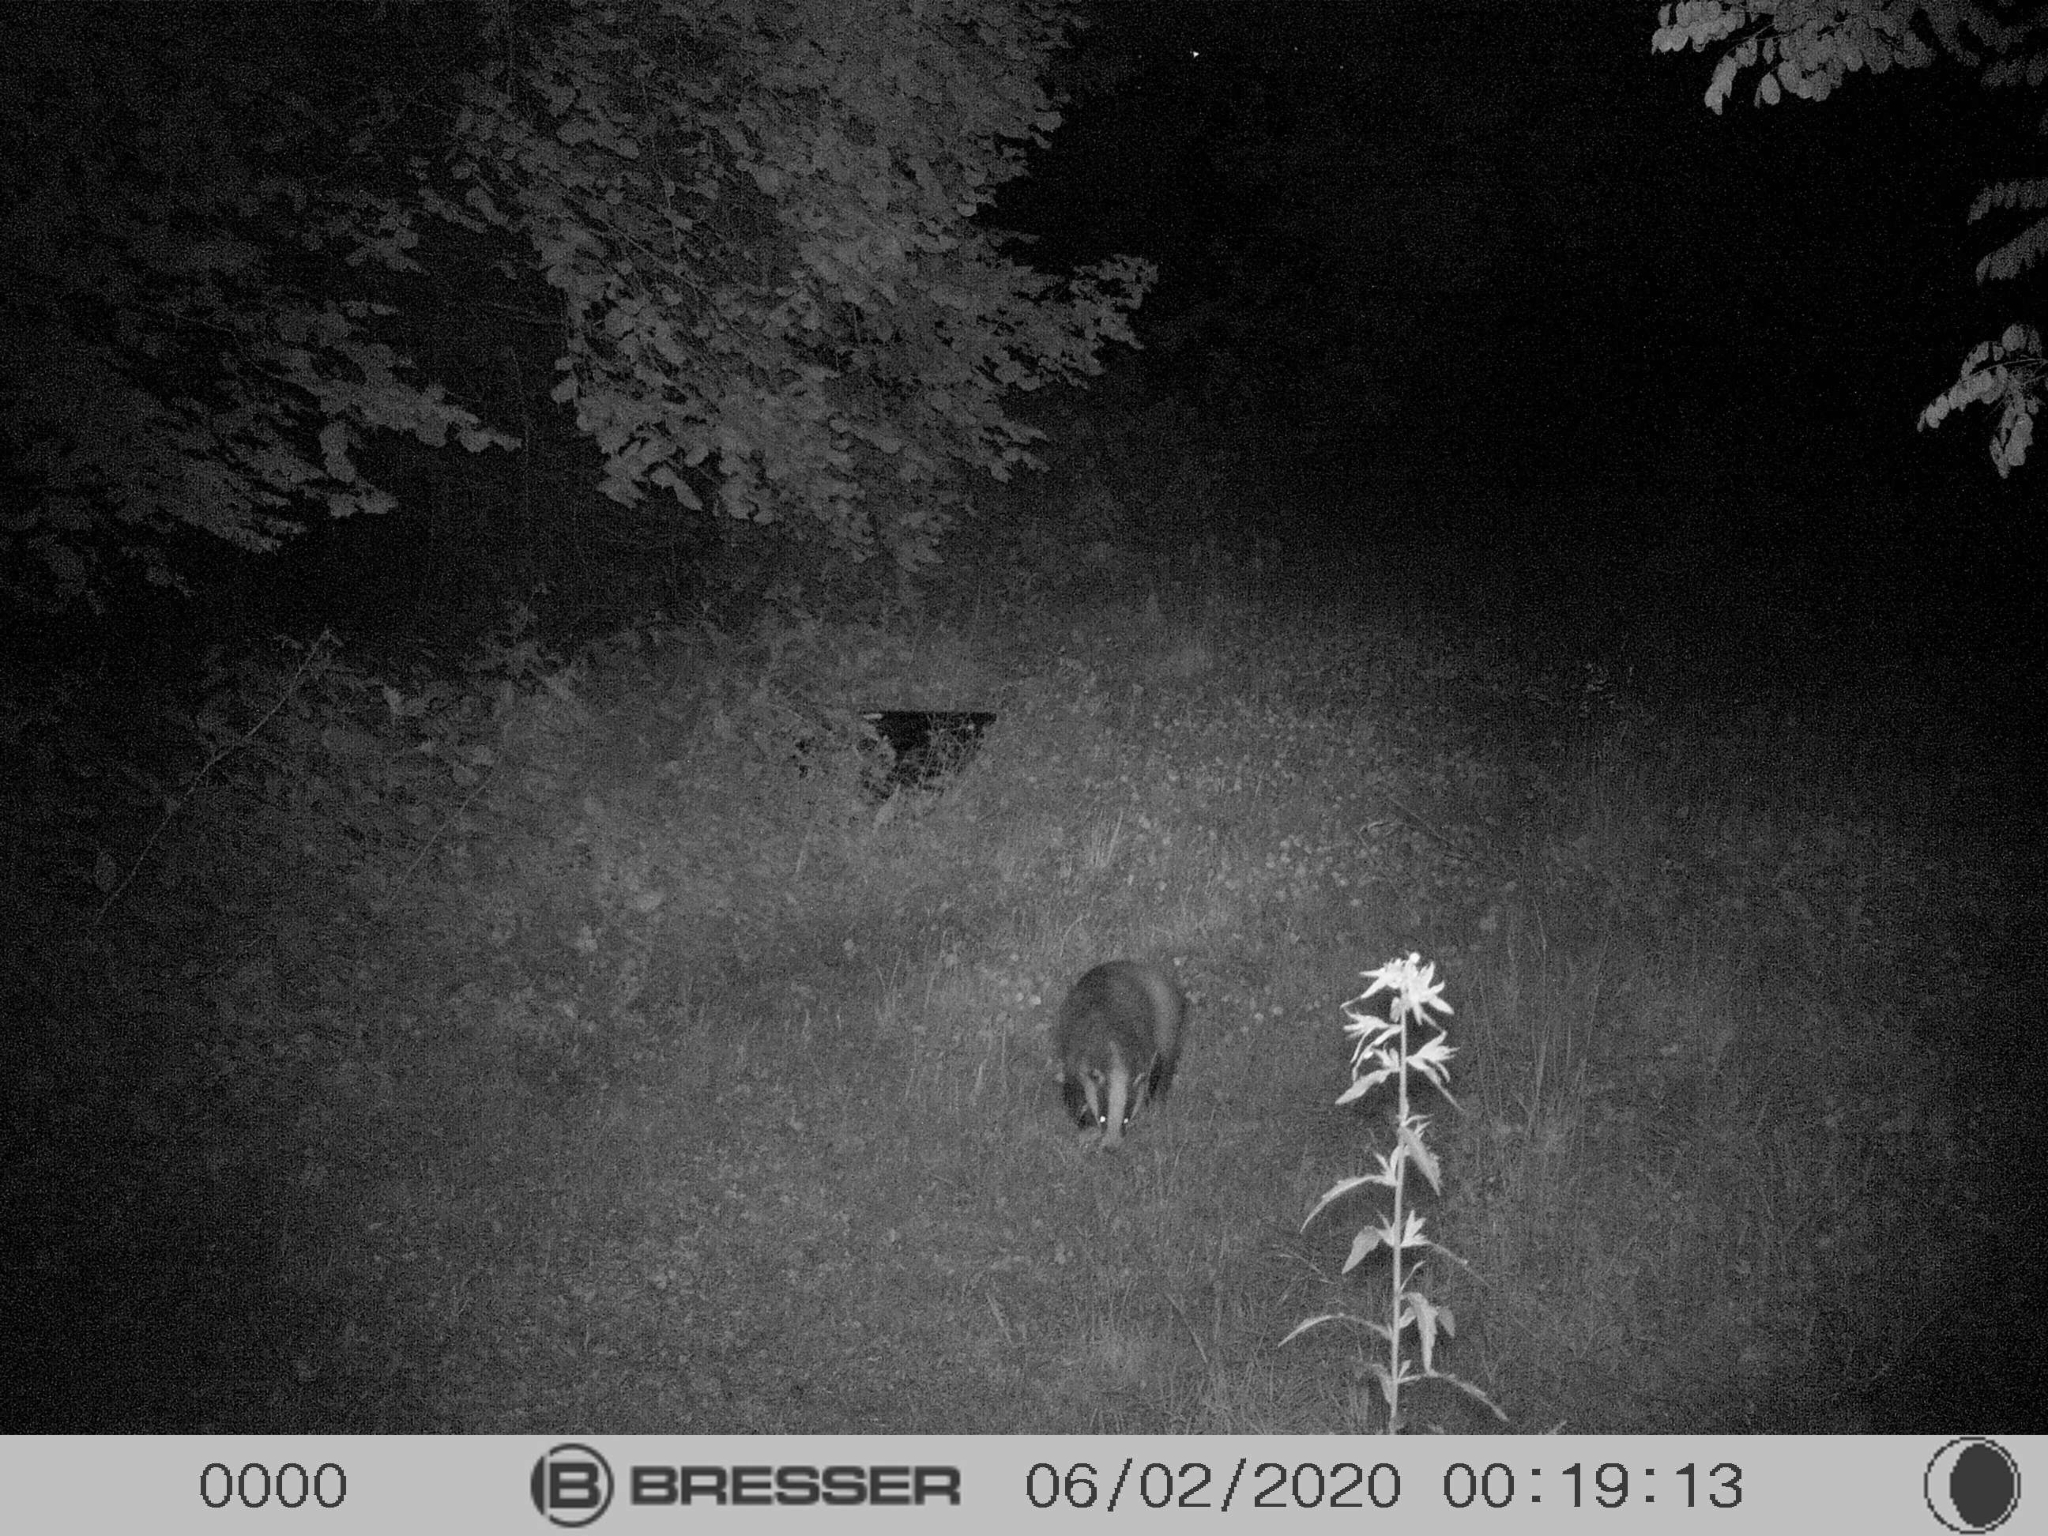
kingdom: Animalia
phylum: Chordata
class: Mammalia
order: Carnivora
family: Mustelidae
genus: Meles
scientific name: Meles meles
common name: Eurasian badger
